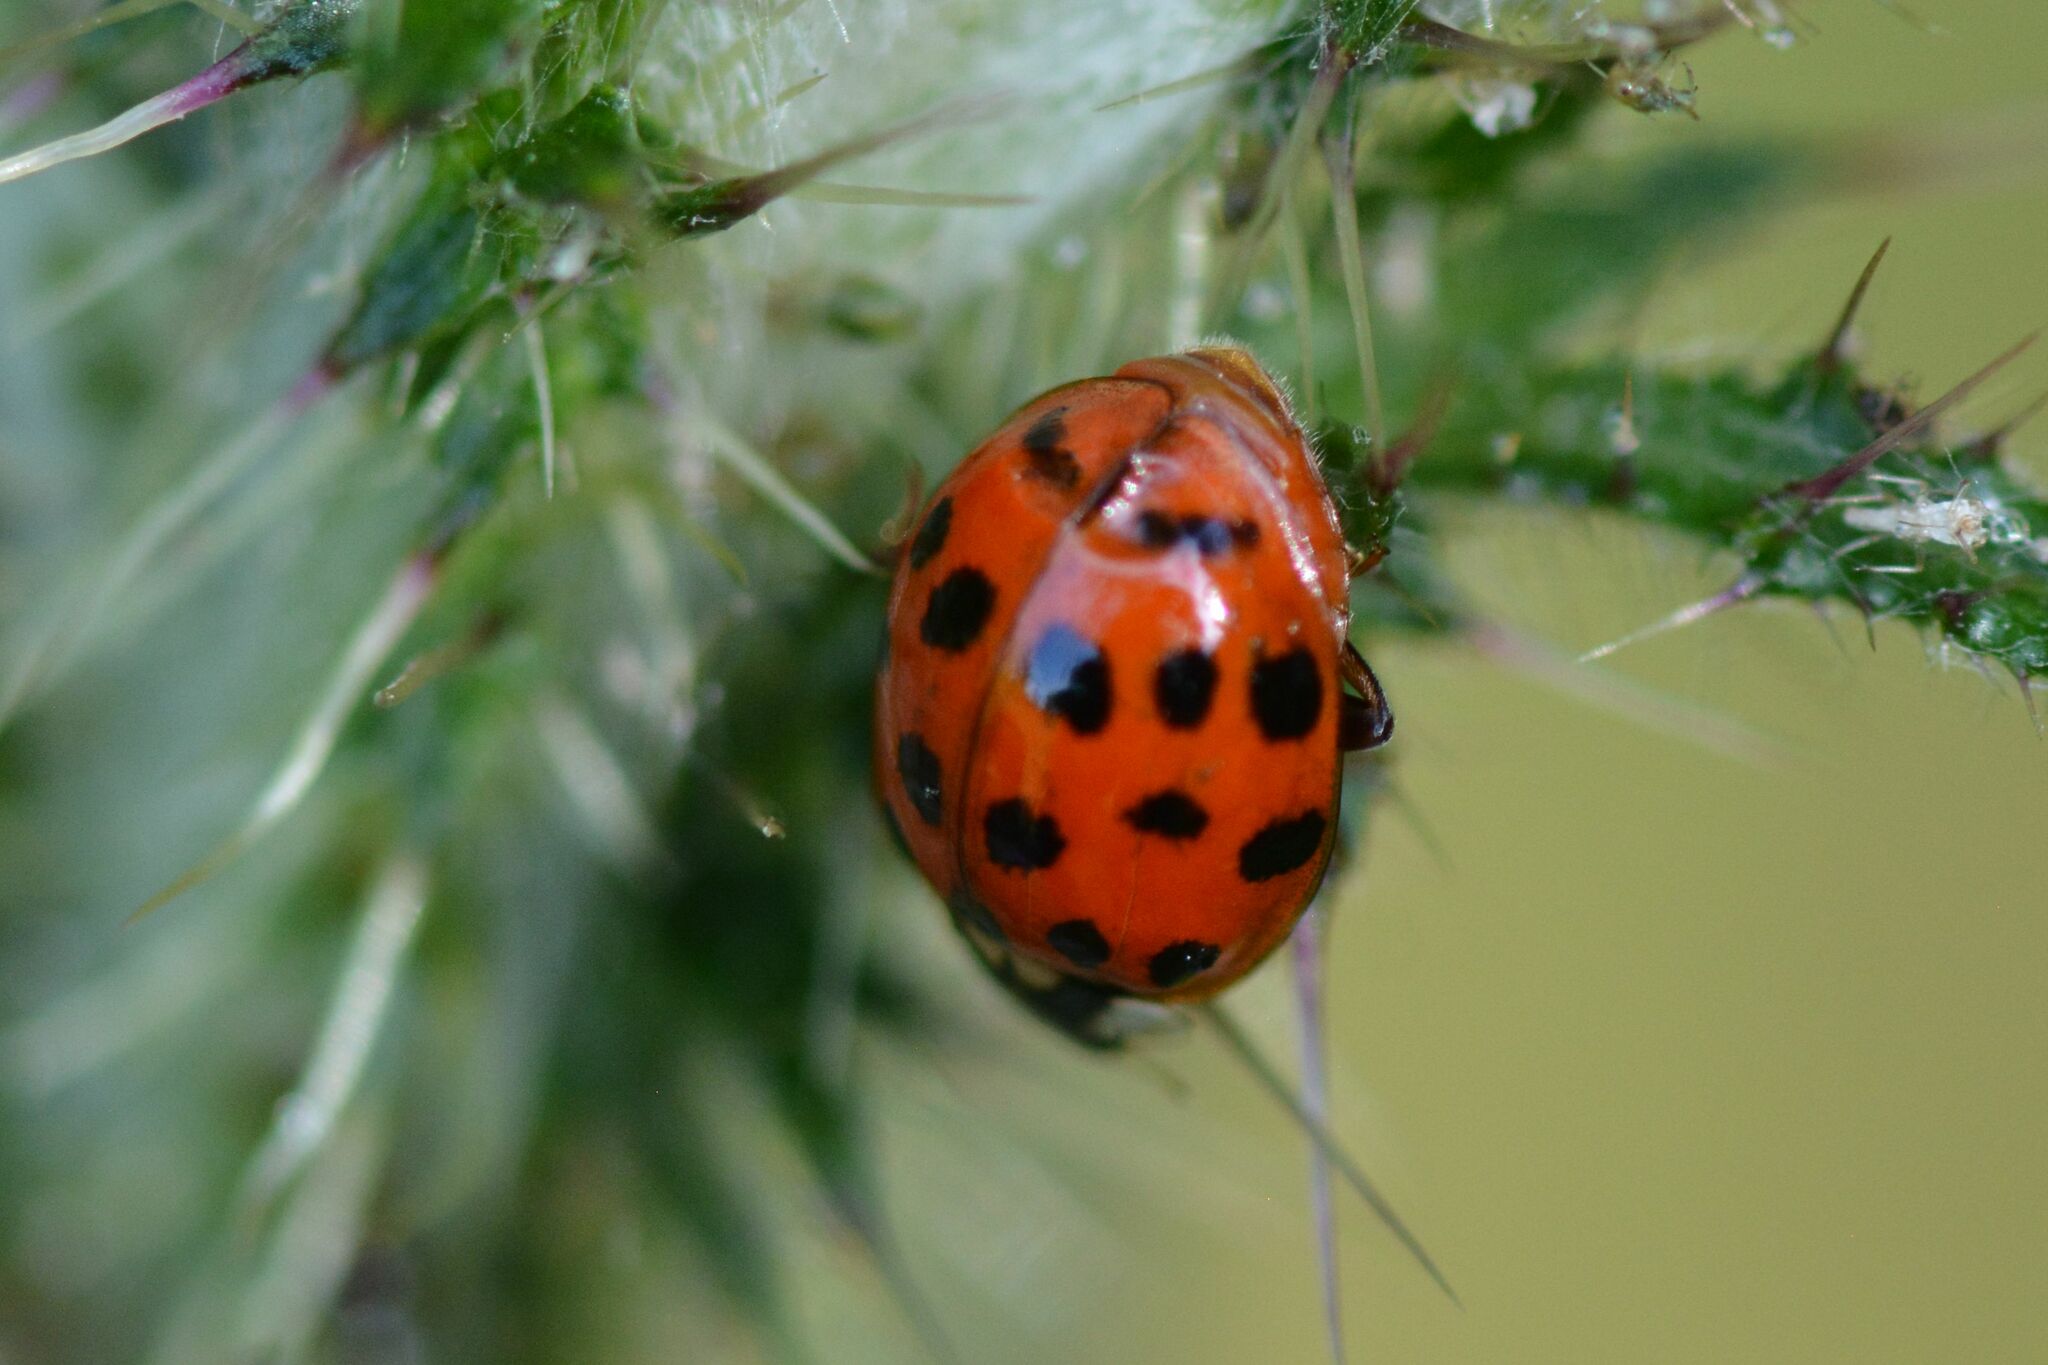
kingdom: Animalia
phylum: Arthropoda
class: Insecta
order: Coleoptera
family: Coccinellidae
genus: Harmonia
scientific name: Harmonia axyridis
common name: Harlequin ladybird
